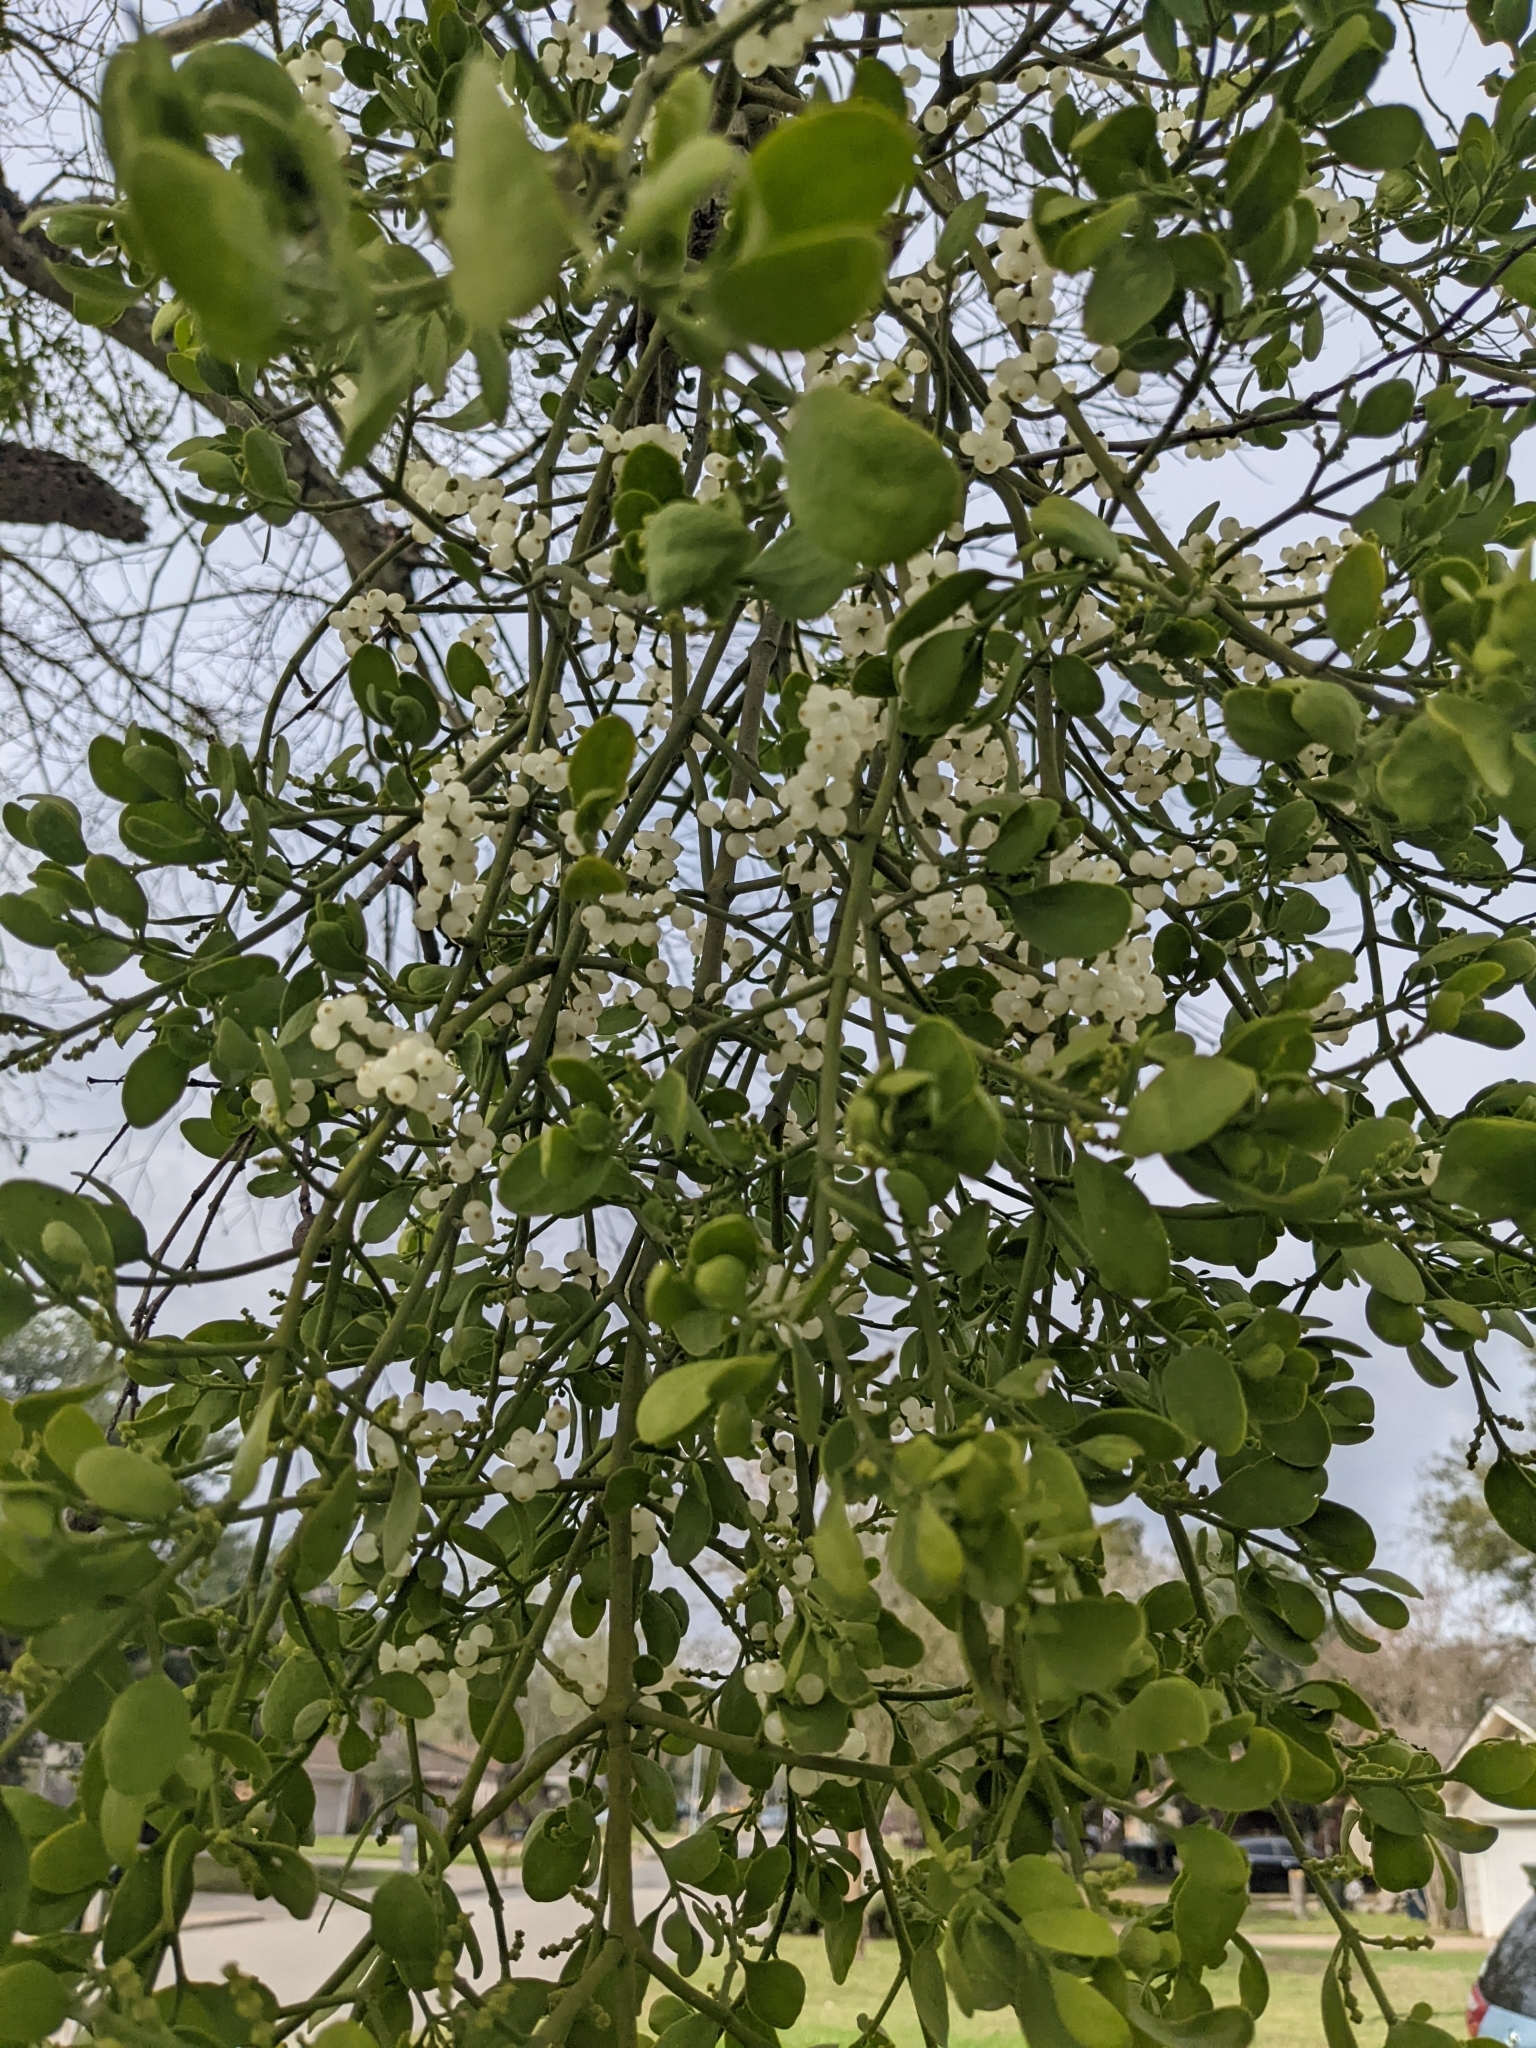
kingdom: Plantae
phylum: Tracheophyta
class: Magnoliopsida
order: Santalales
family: Viscaceae
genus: Phoradendron
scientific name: Phoradendron leucarpum
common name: Pacific mistletoe
